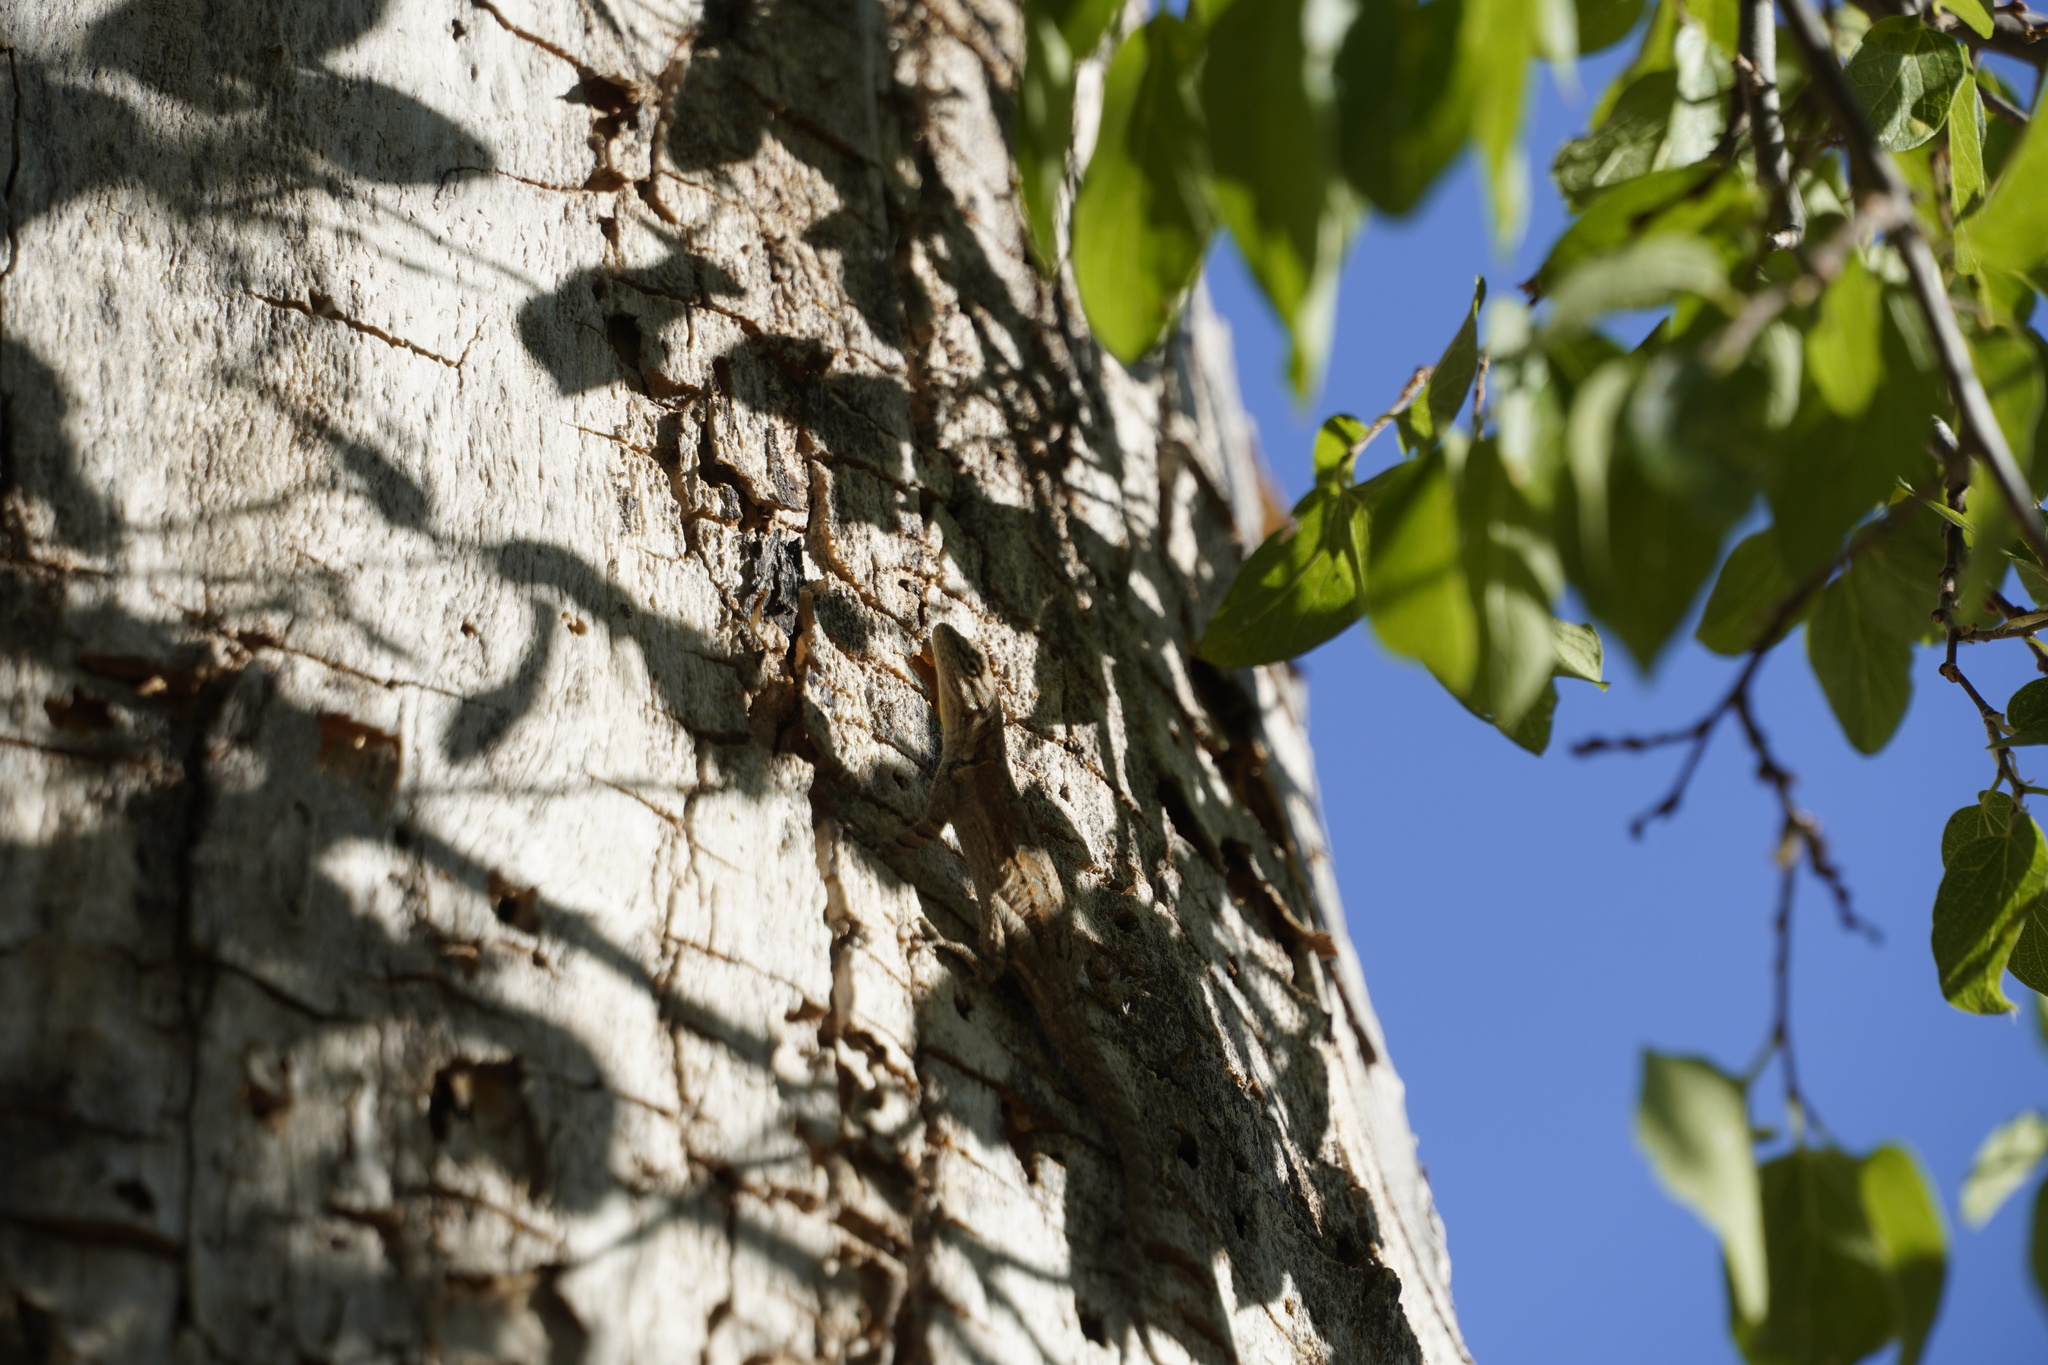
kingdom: Animalia
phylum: Chordata
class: Squamata
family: Phrynosomatidae
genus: Urosaurus
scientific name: Urosaurus ornatus
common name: Ornate tree lizard
